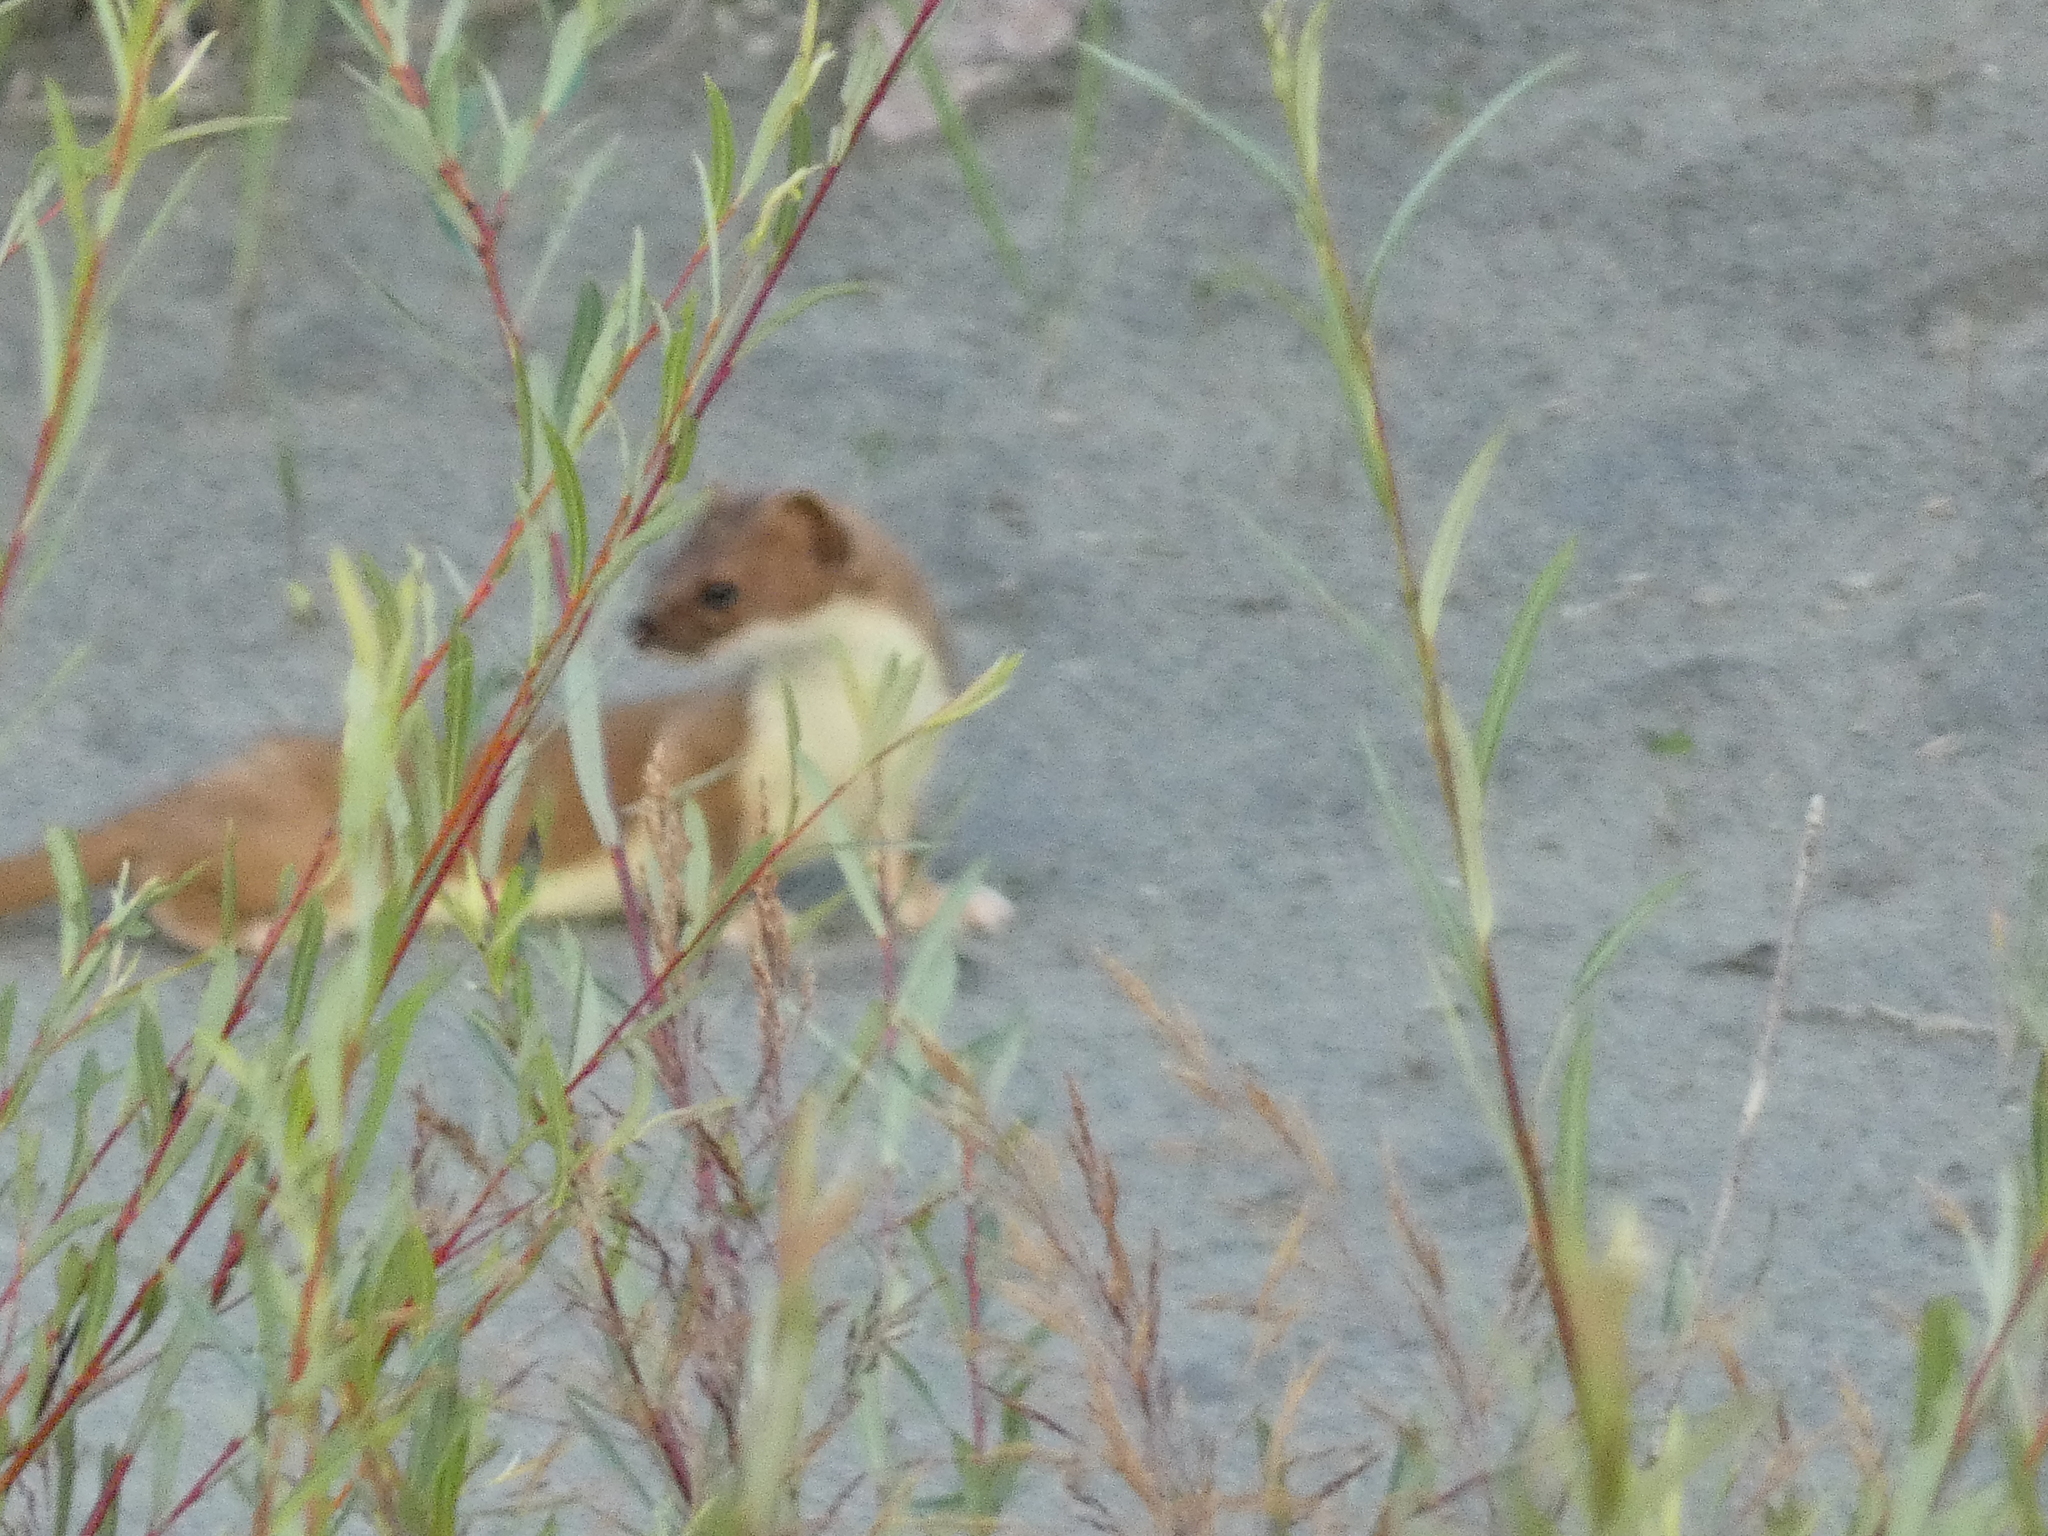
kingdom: Animalia
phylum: Chordata
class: Mammalia
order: Carnivora
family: Mustelidae
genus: Mustela
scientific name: Mustela erminea
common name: Stoat
